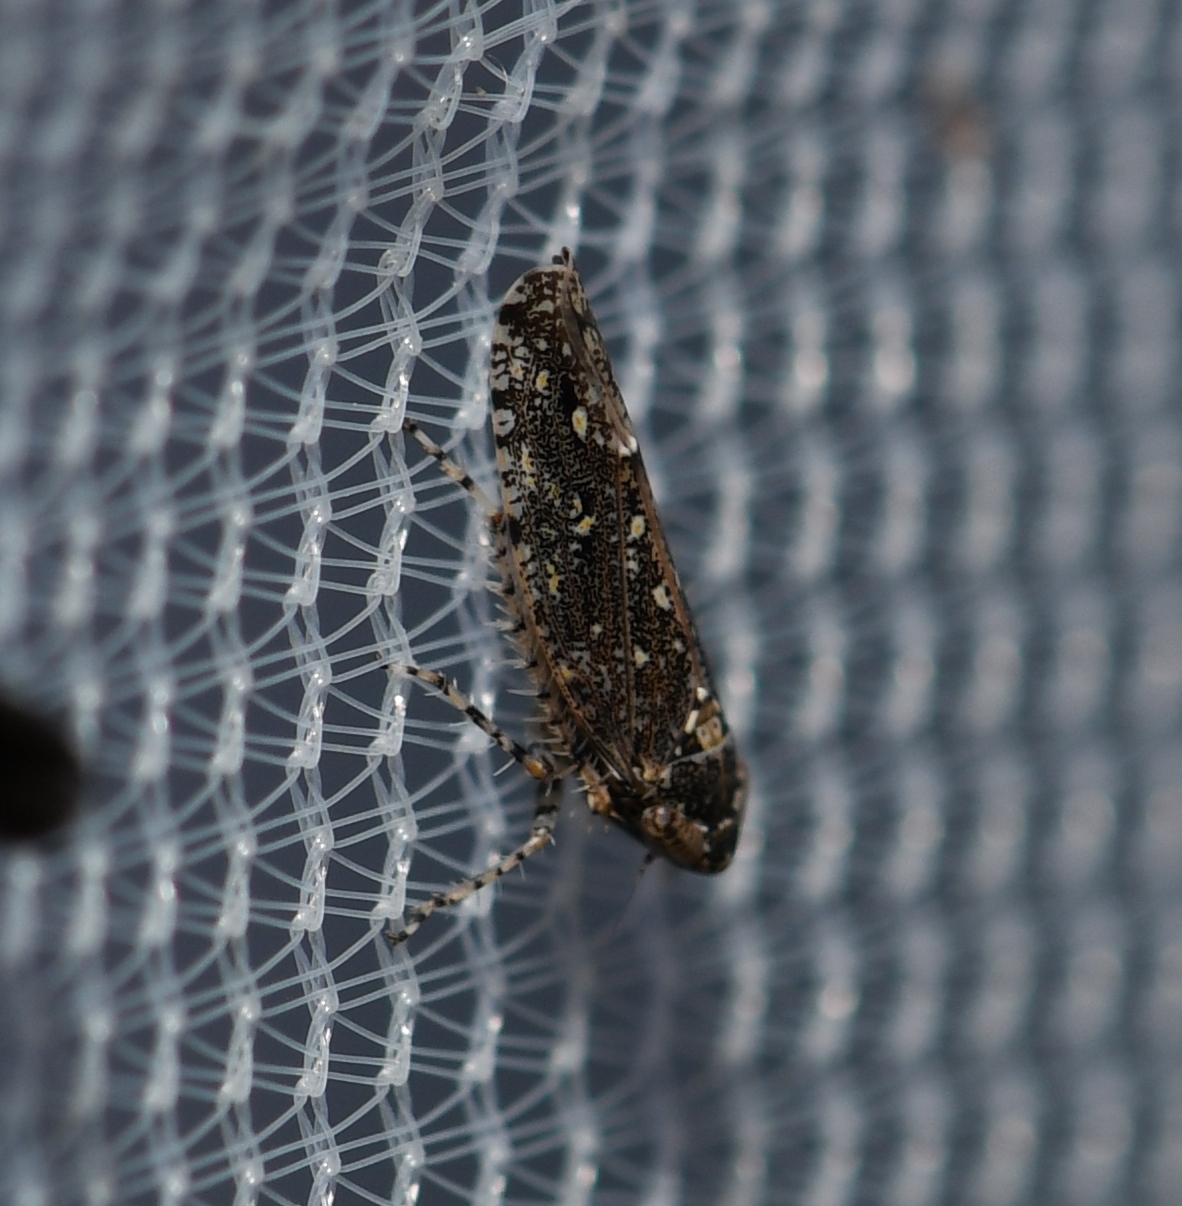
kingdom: Animalia
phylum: Arthropoda
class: Insecta
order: Hemiptera
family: Cicadellidae
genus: Dixianus
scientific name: Dixianus utahnus
